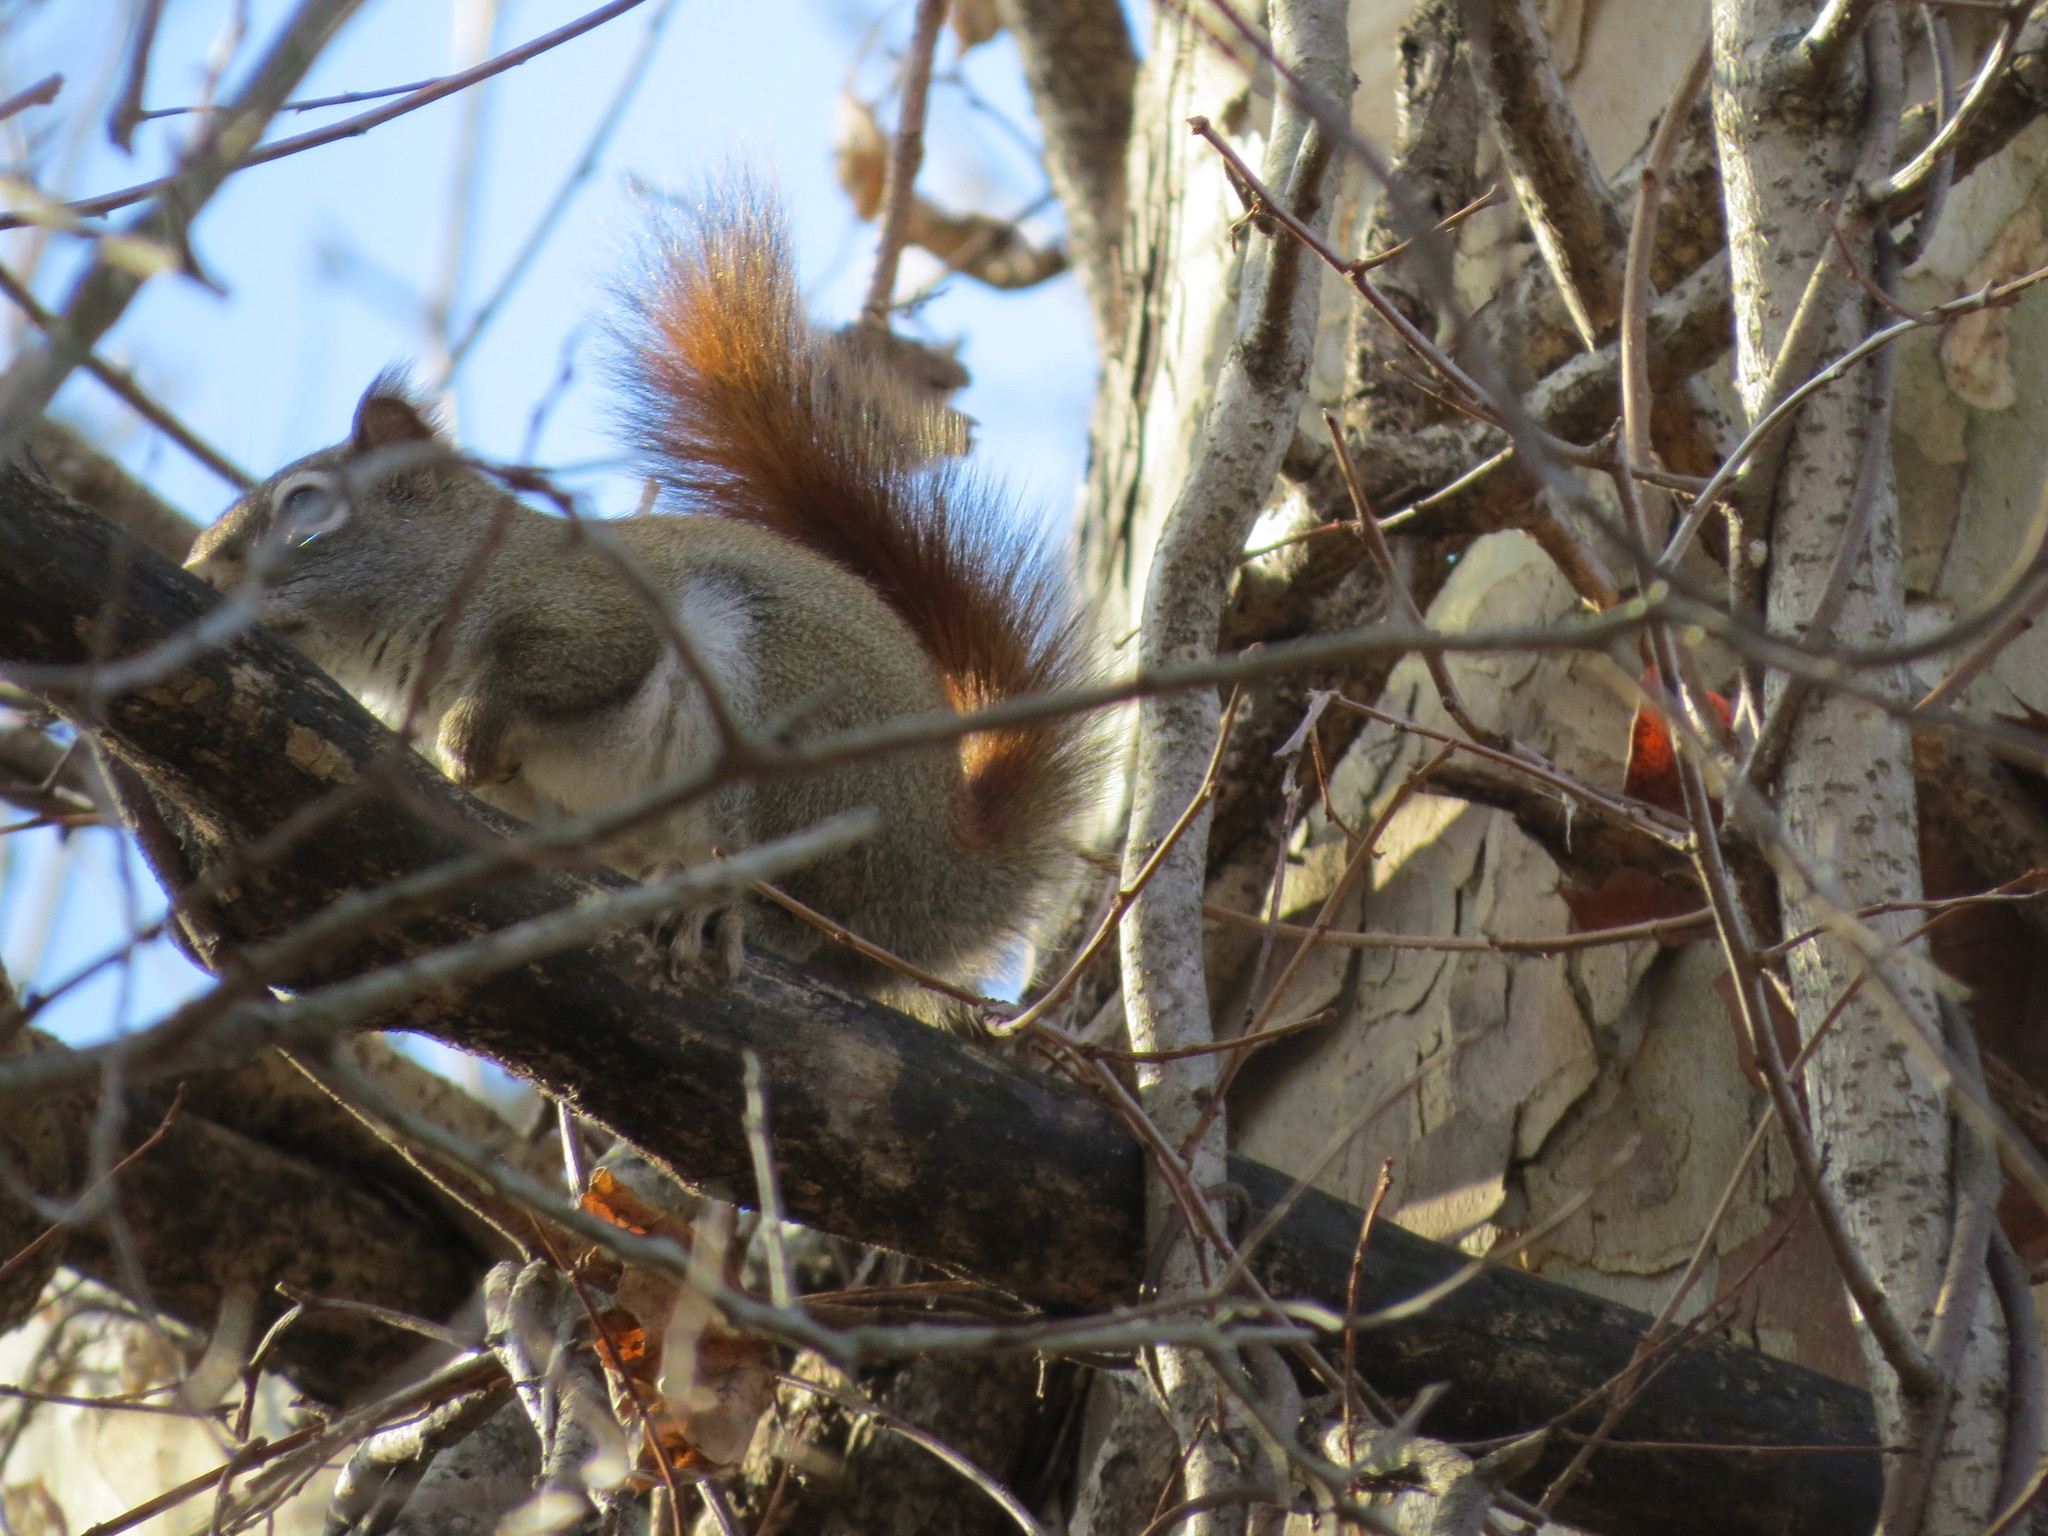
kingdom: Animalia
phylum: Chordata
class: Mammalia
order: Rodentia
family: Sciuridae
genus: Tamiasciurus
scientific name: Tamiasciurus hudsonicus
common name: Red squirrel
